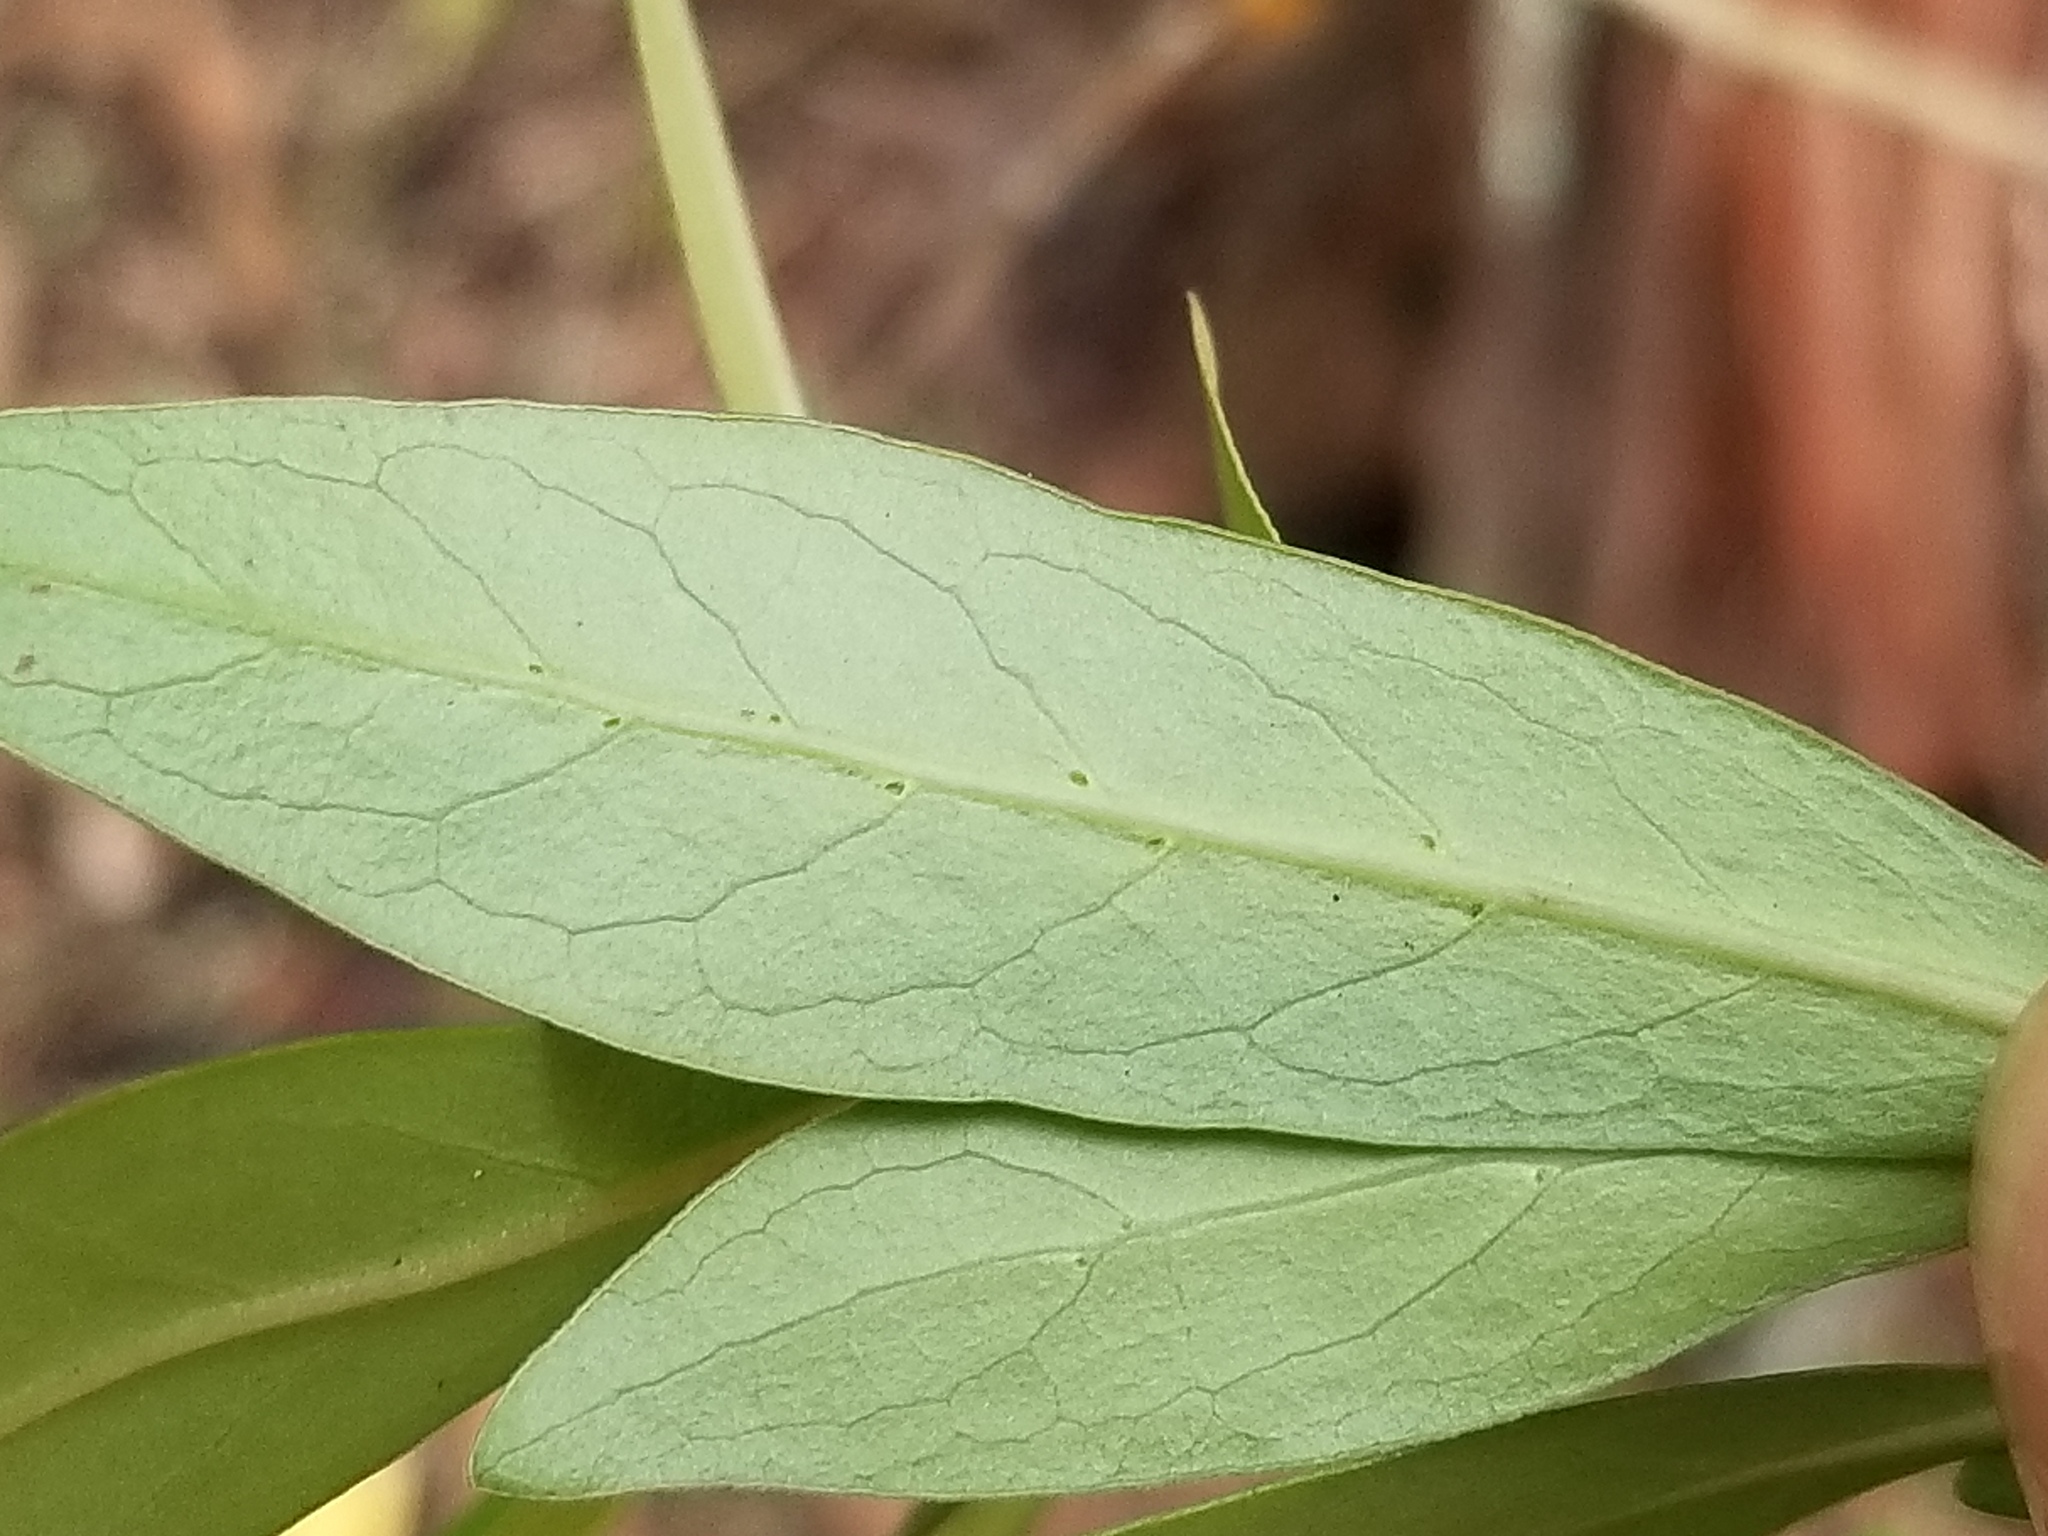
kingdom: Plantae
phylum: Tracheophyta
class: Magnoliopsida
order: Gentianales
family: Rubiaceae
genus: Coprosma
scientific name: Coprosma robusta
